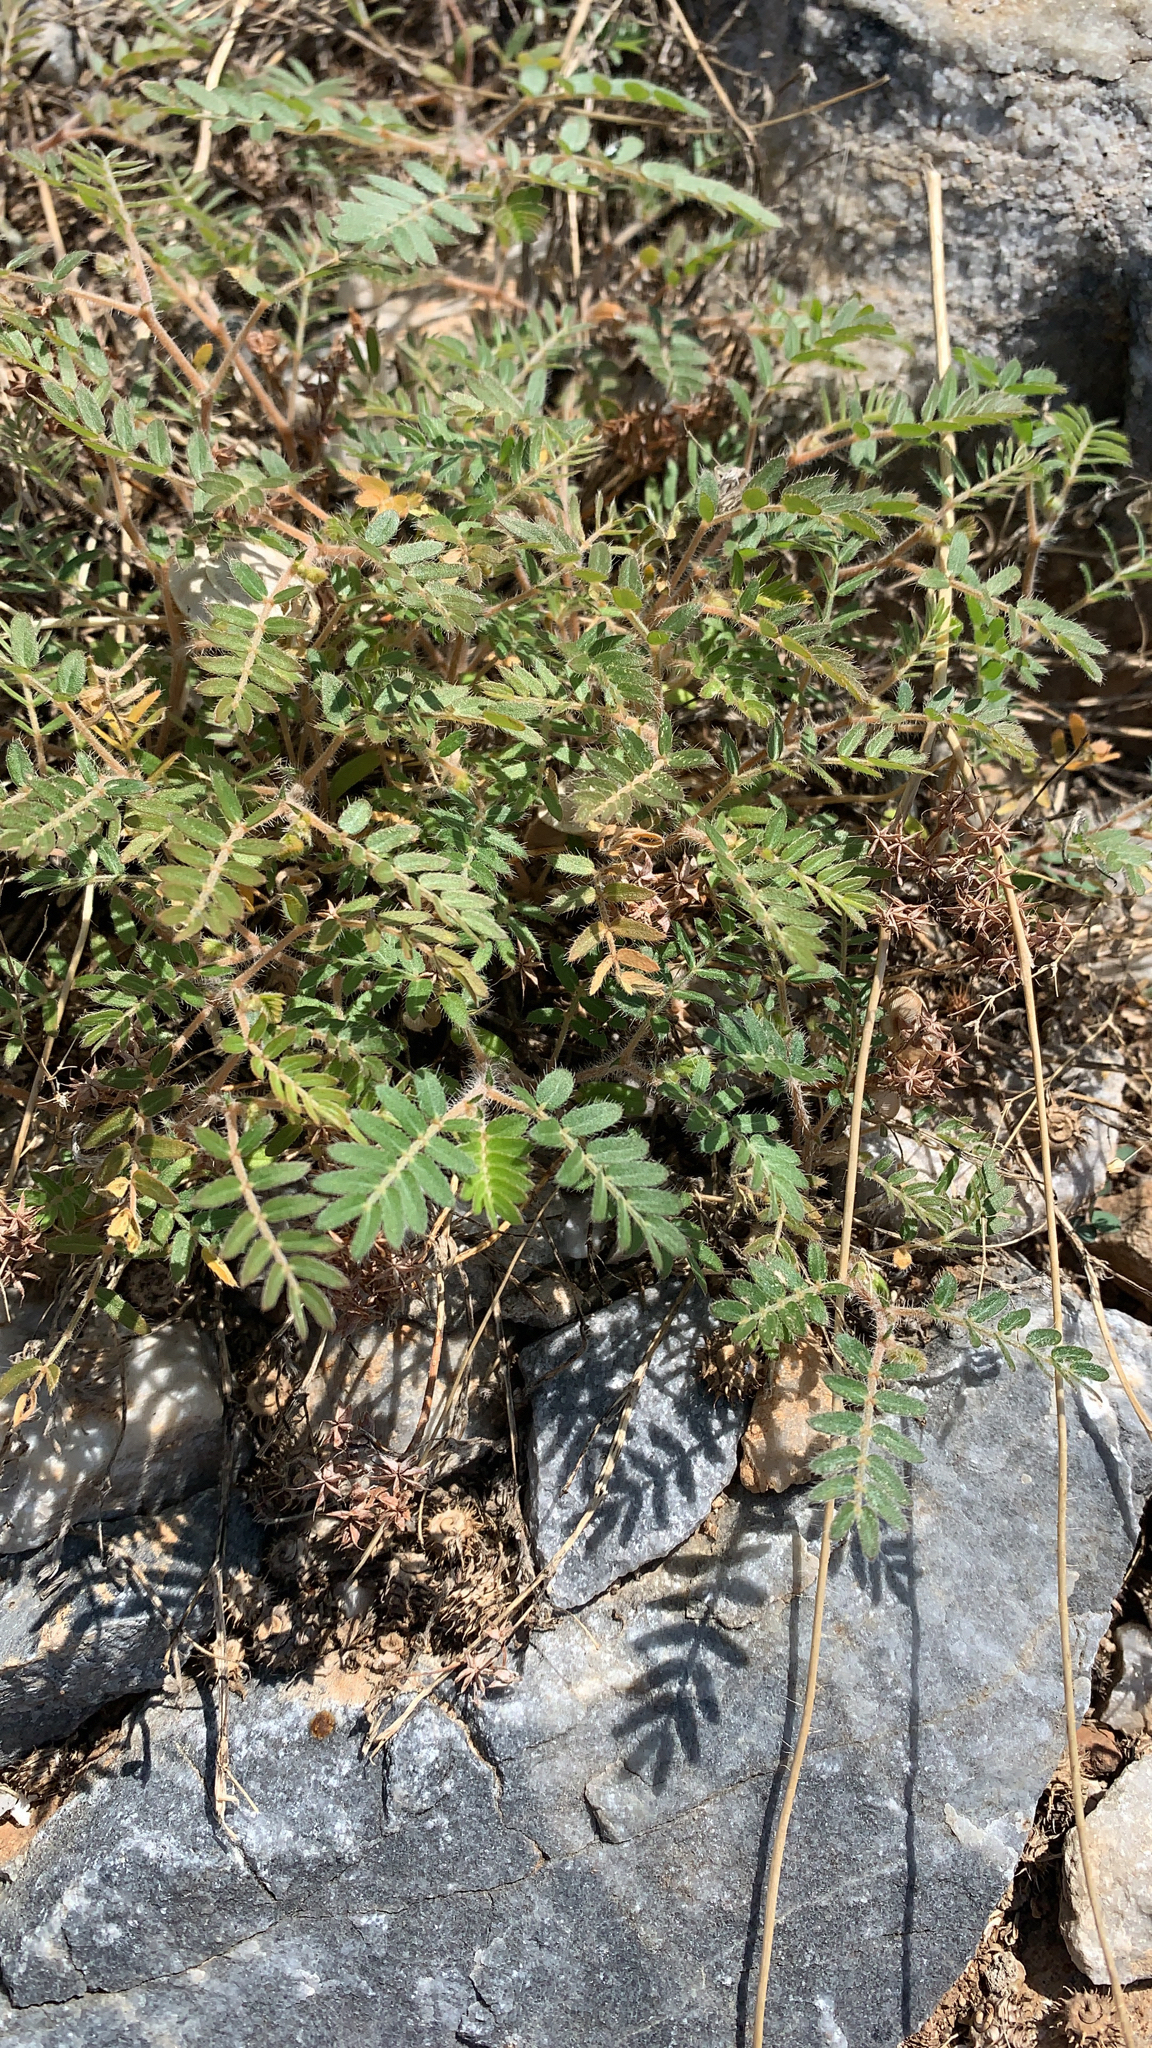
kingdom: Plantae
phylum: Tracheophyta
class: Magnoliopsida
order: Zygophyllales
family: Zygophyllaceae
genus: Tribulus
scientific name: Tribulus terrestris
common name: Puncturevine
